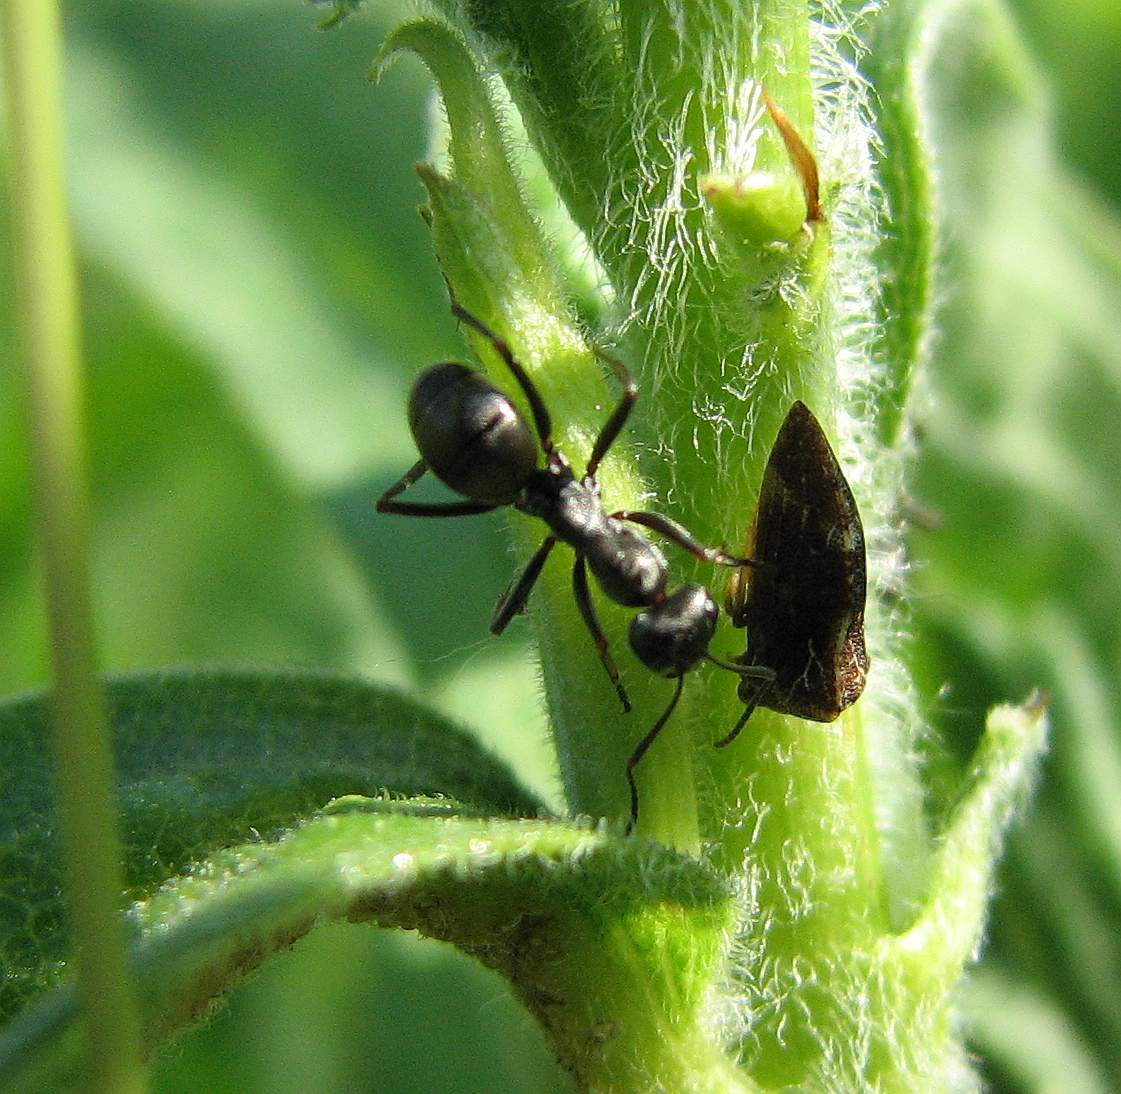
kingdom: Animalia
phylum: Arthropoda
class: Insecta
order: Hemiptera
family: Membracidae
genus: Publilia
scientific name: Publilia concava
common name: Aster treehopper
